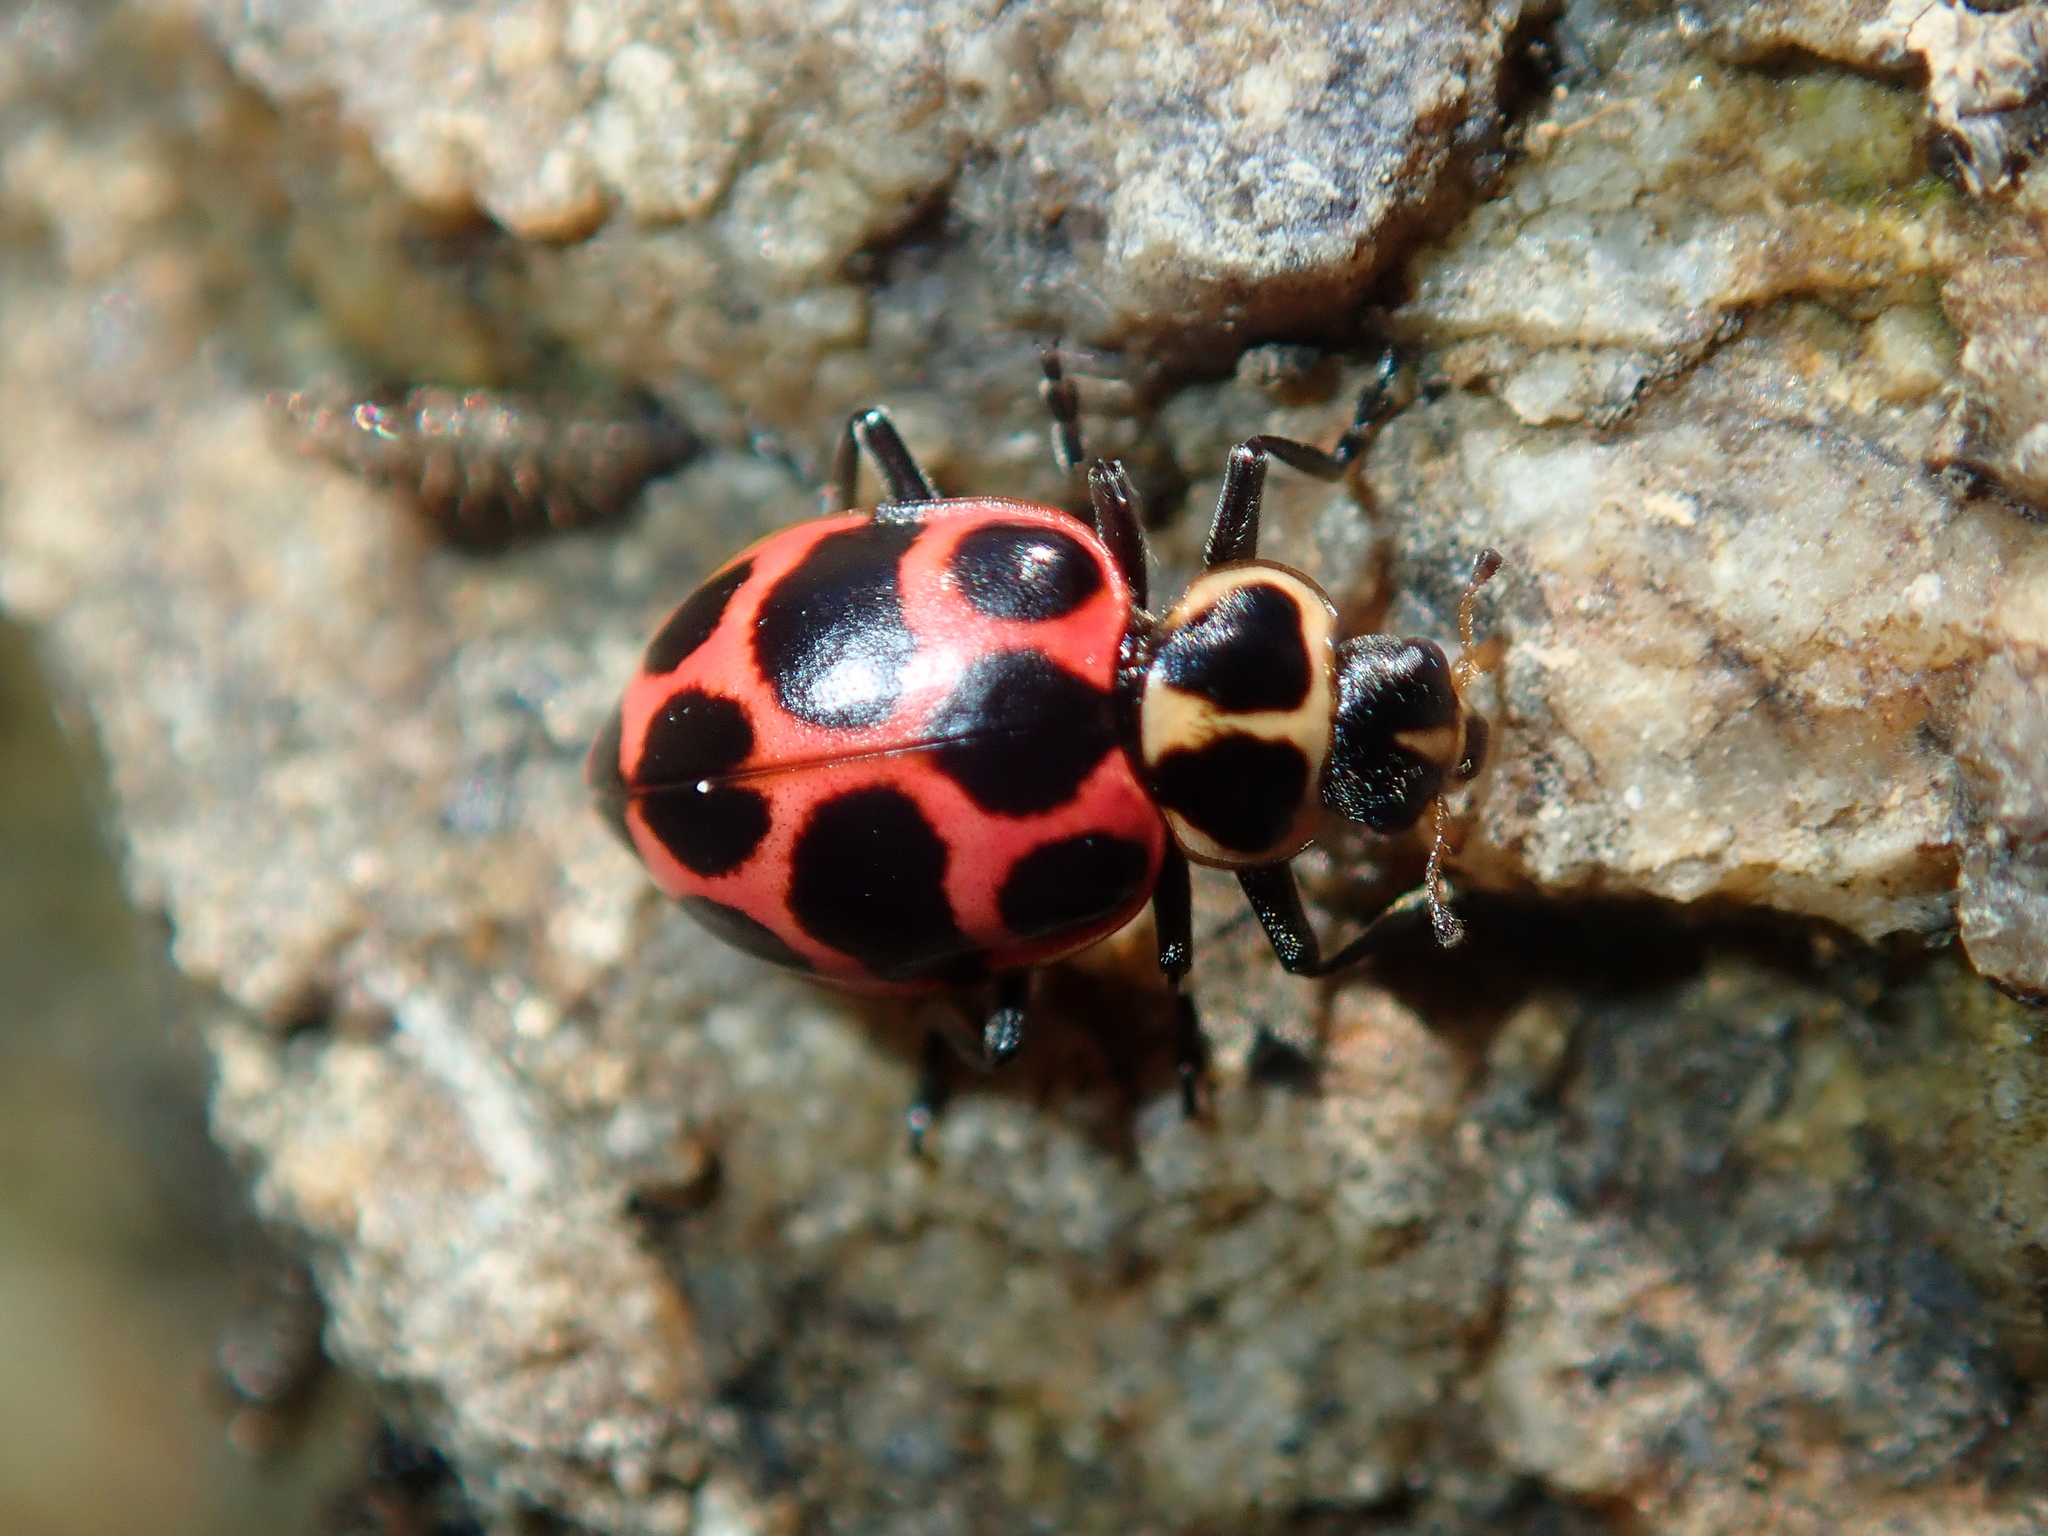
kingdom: Animalia
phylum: Arthropoda
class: Insecta
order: Coleoptera
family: Coccinellidae
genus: Coleomegilla
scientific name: Coleomegilla maculata
